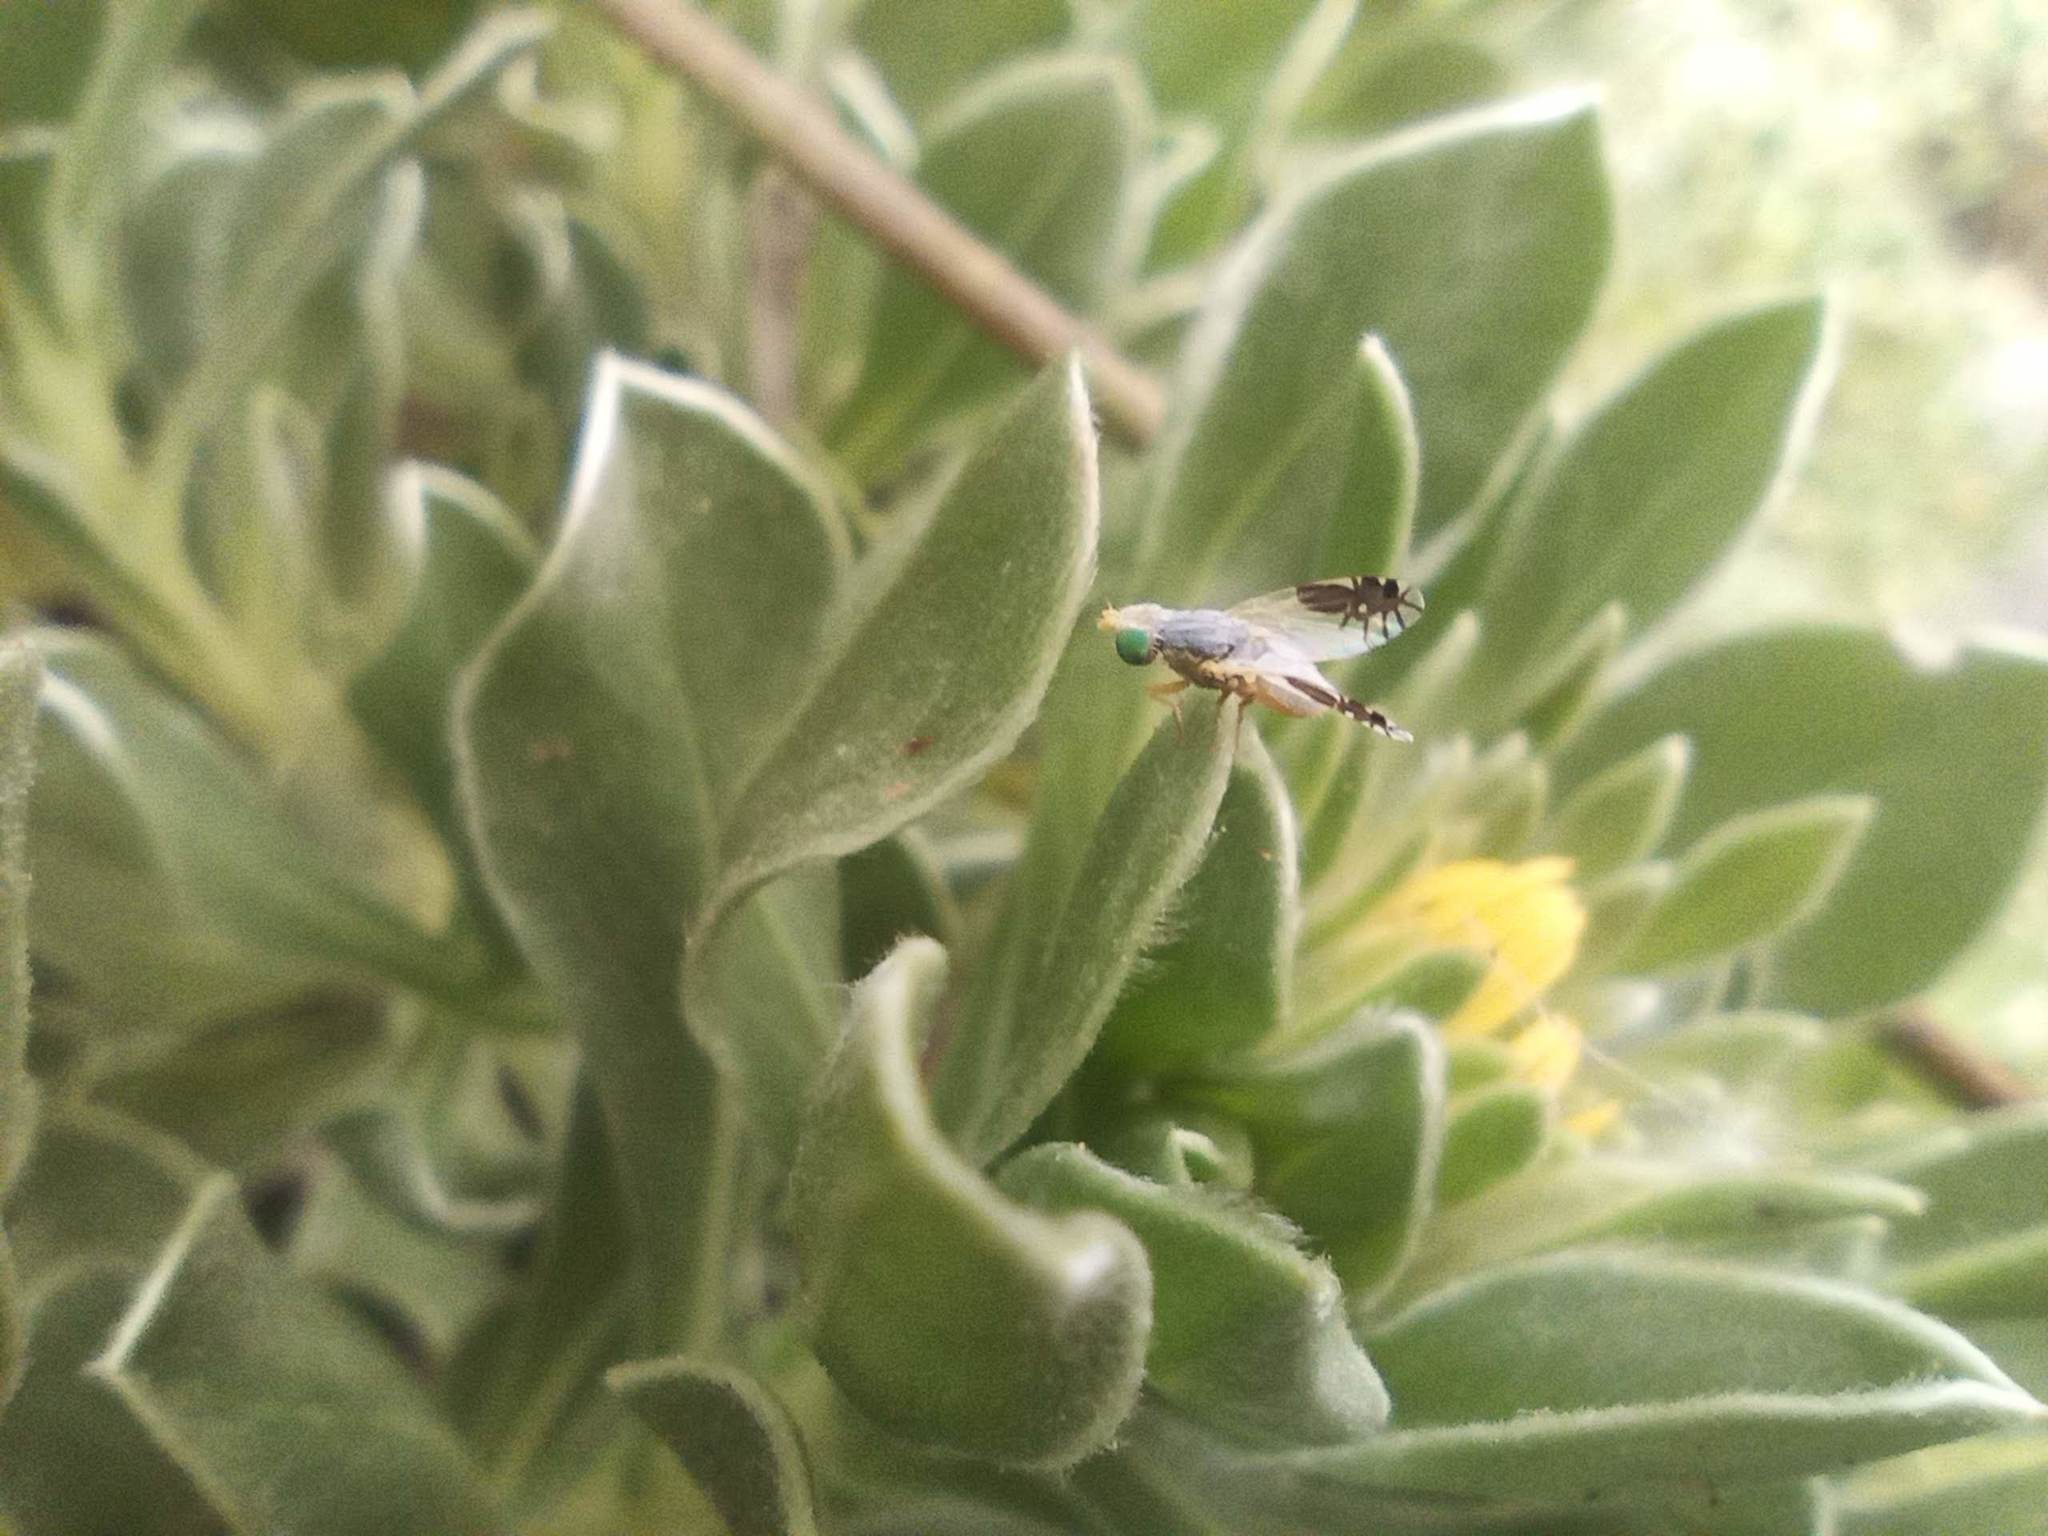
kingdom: Animalia
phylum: Arthropoda
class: Insecta
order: Diptera
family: Tephritidae
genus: Goniurellia
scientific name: Goniurellia longicauda
